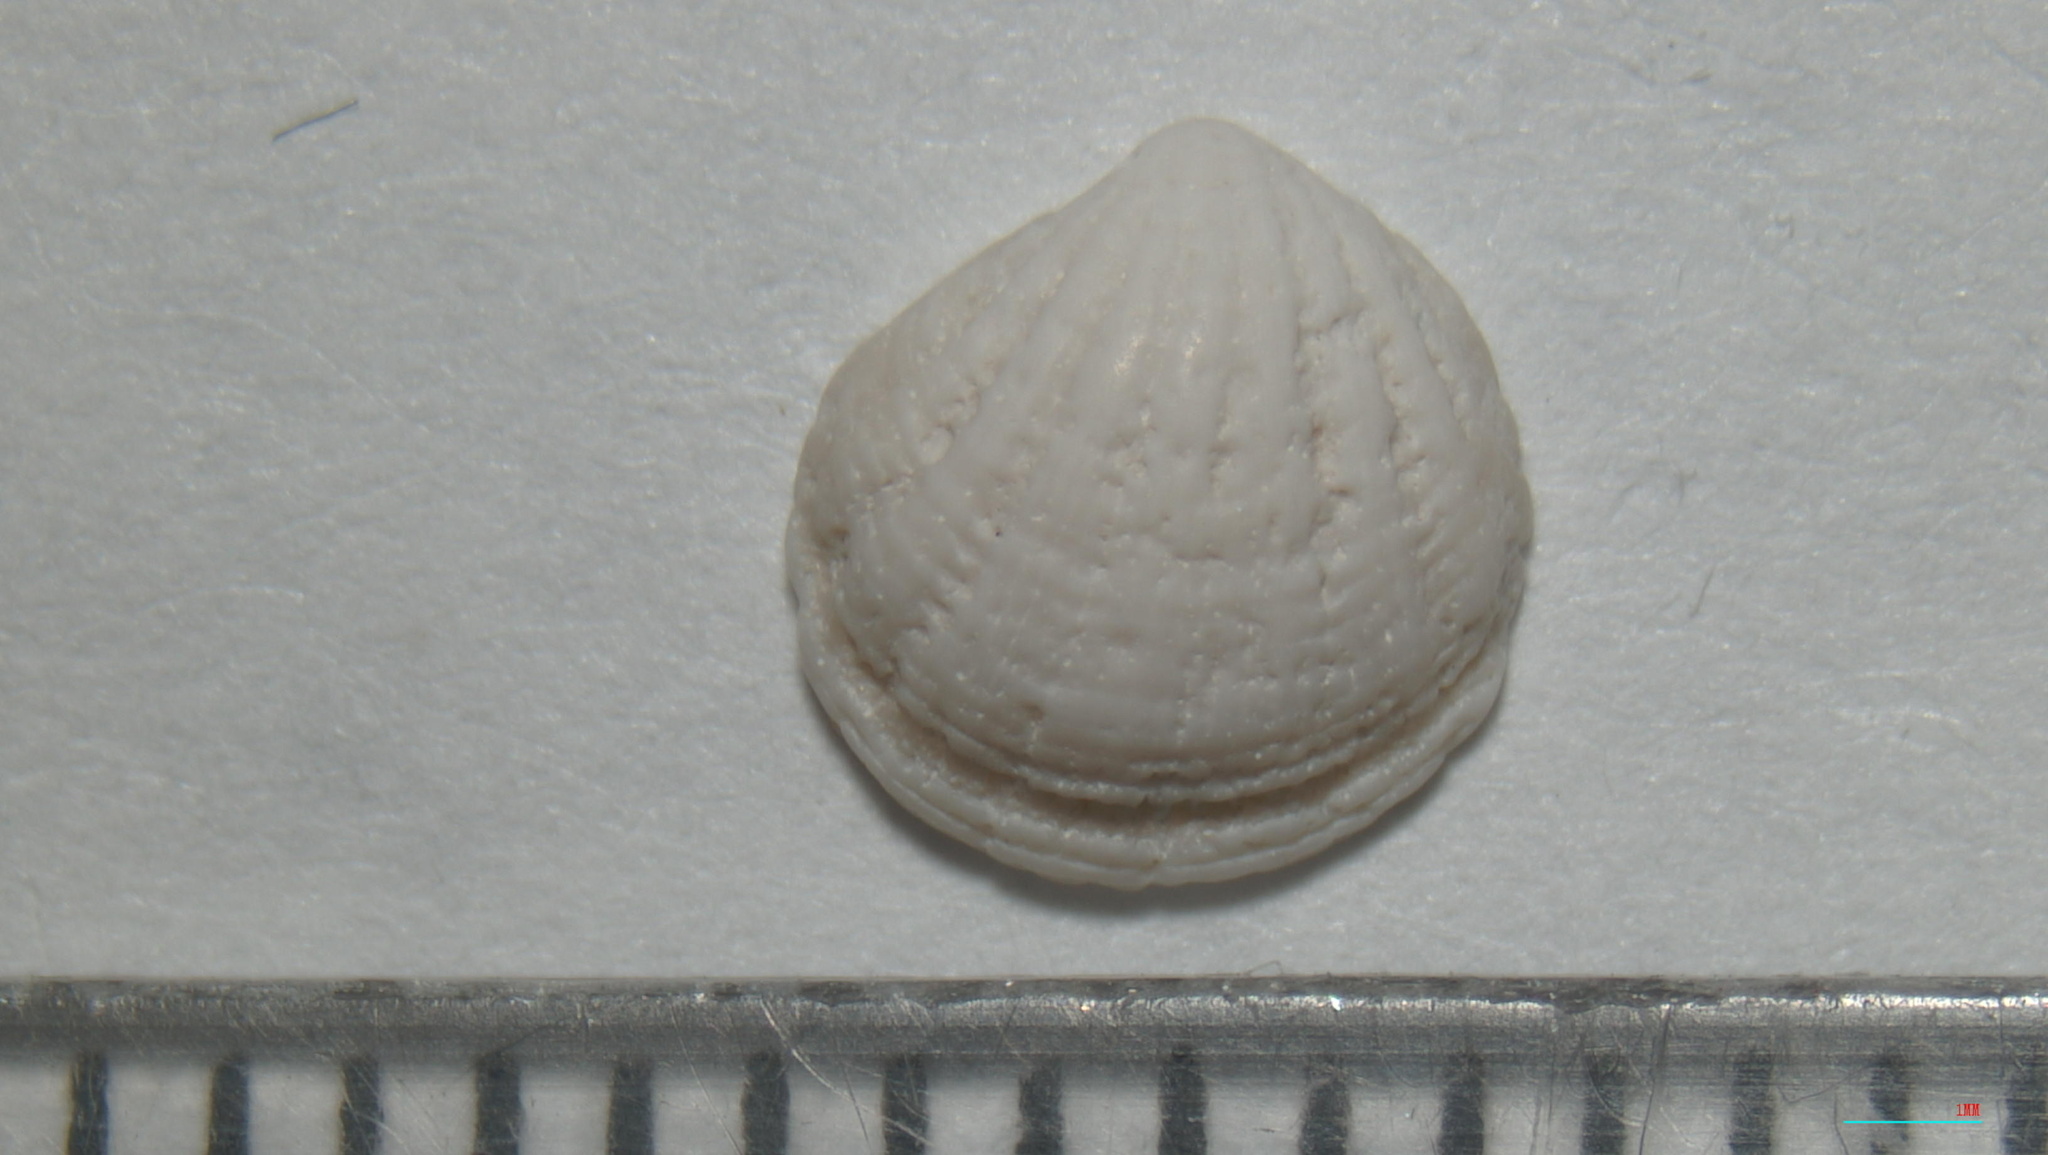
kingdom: Animalia
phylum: Mollusca
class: Bivalvia
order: Lucinida
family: Lucinidae
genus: Radiolucina
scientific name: Radiolucina amianta
